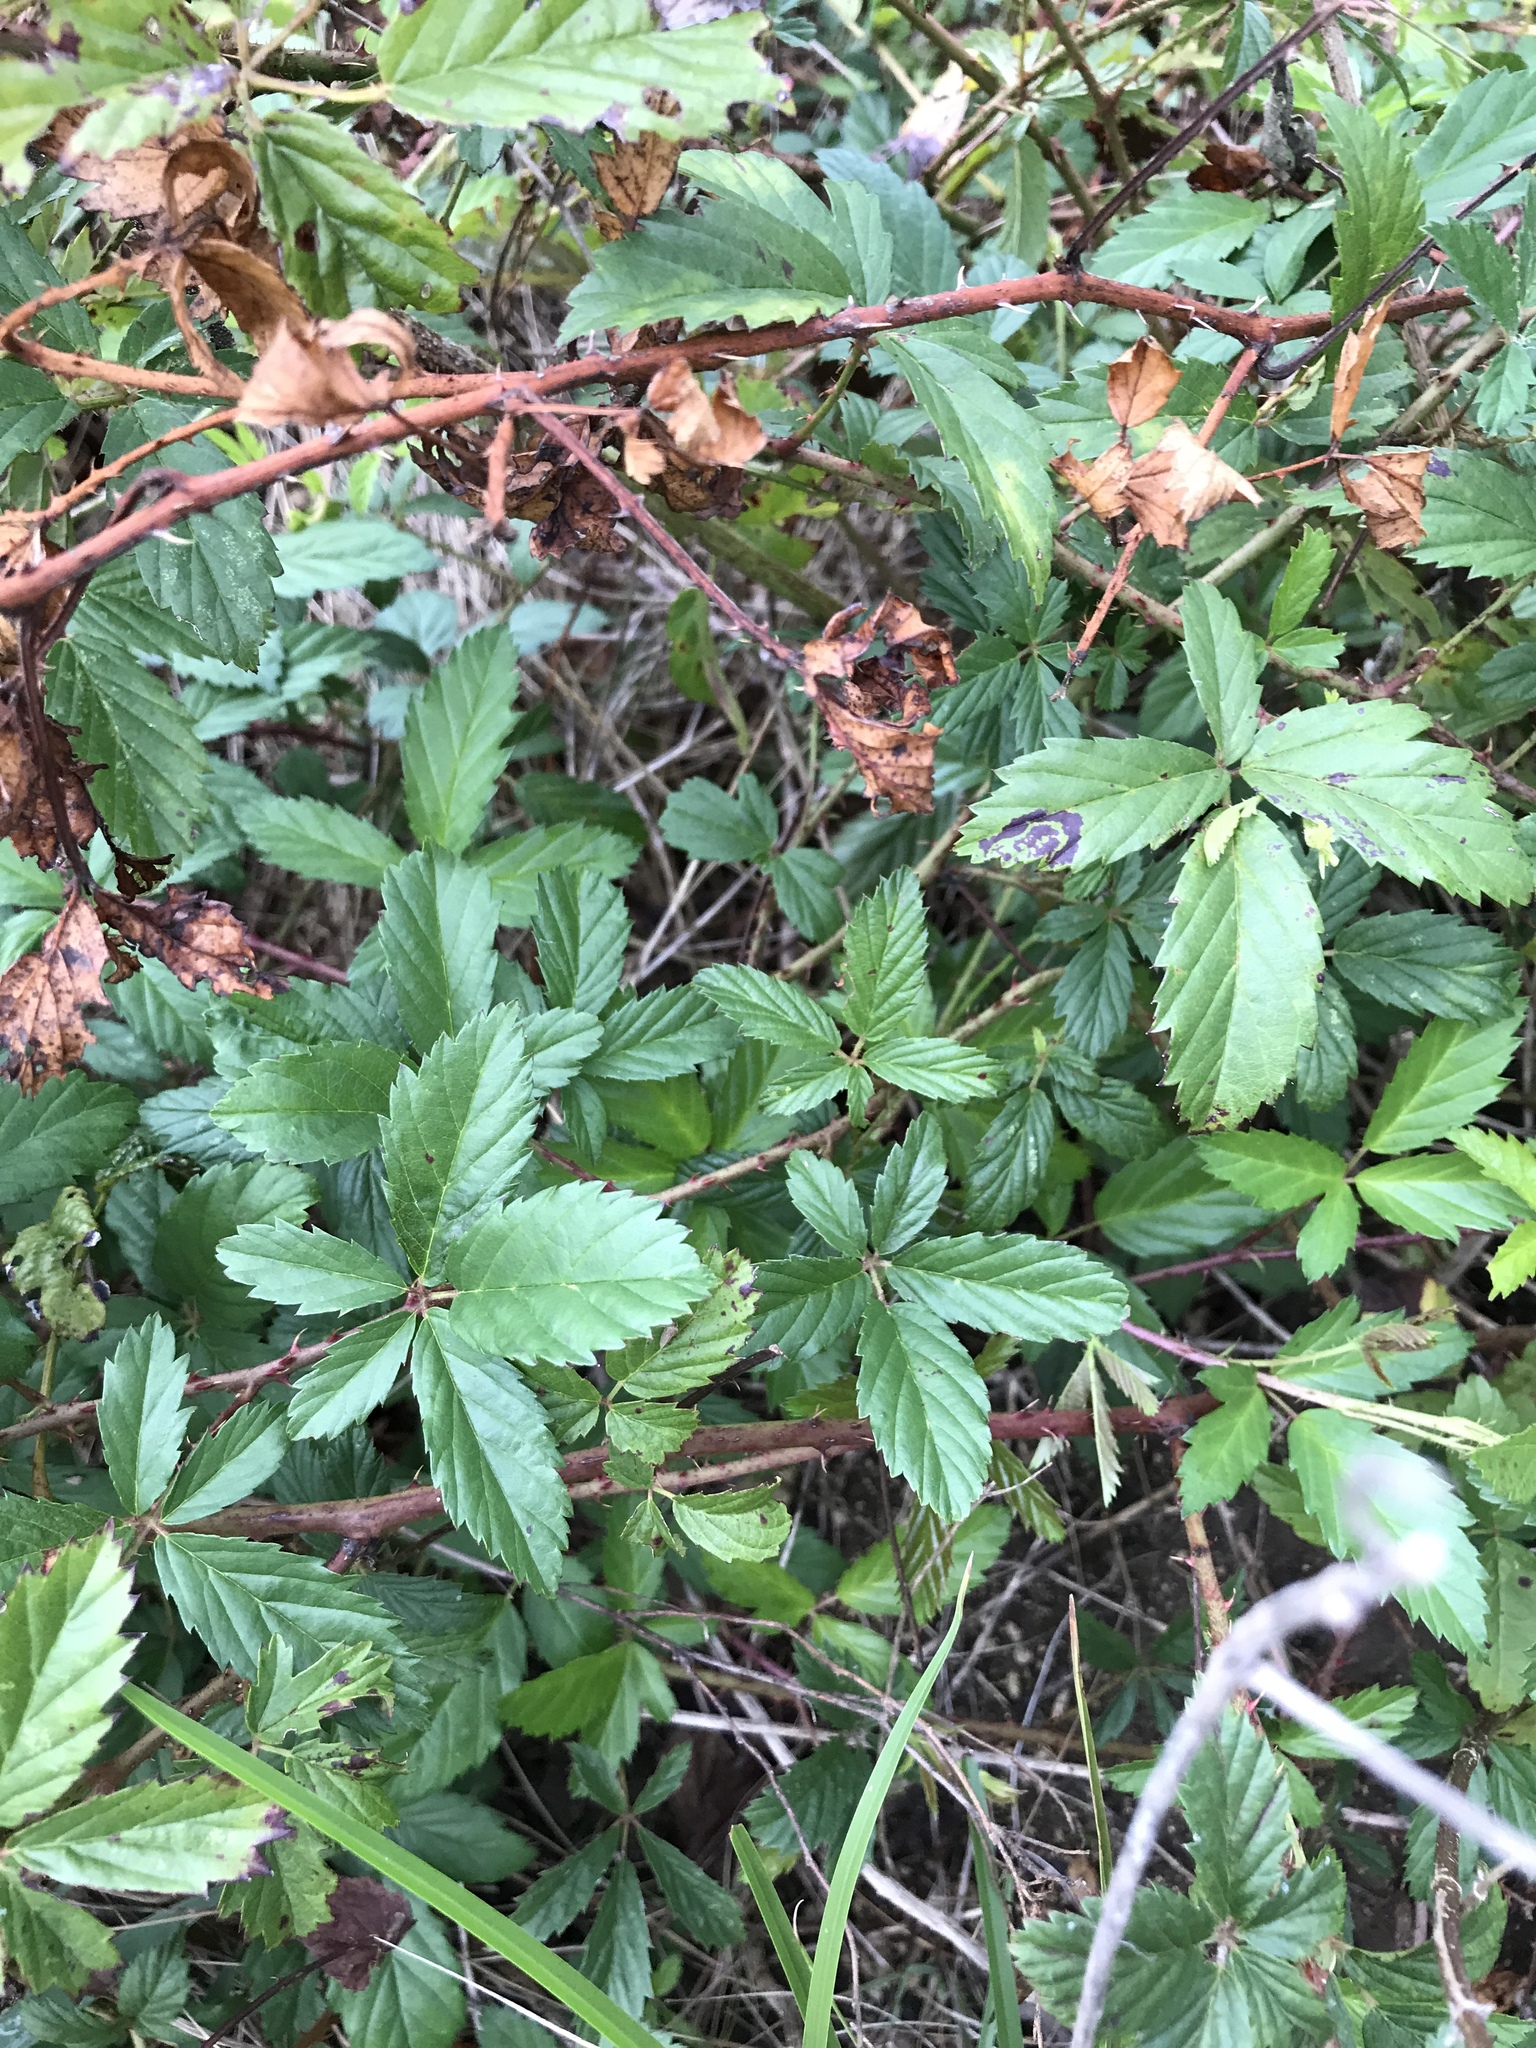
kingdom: Plantae
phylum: Tracheophyta
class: Magnoliopsida
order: Rosales
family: Rosaceae
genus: Rubus
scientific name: Rubus trivialis
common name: Southern dewberry
